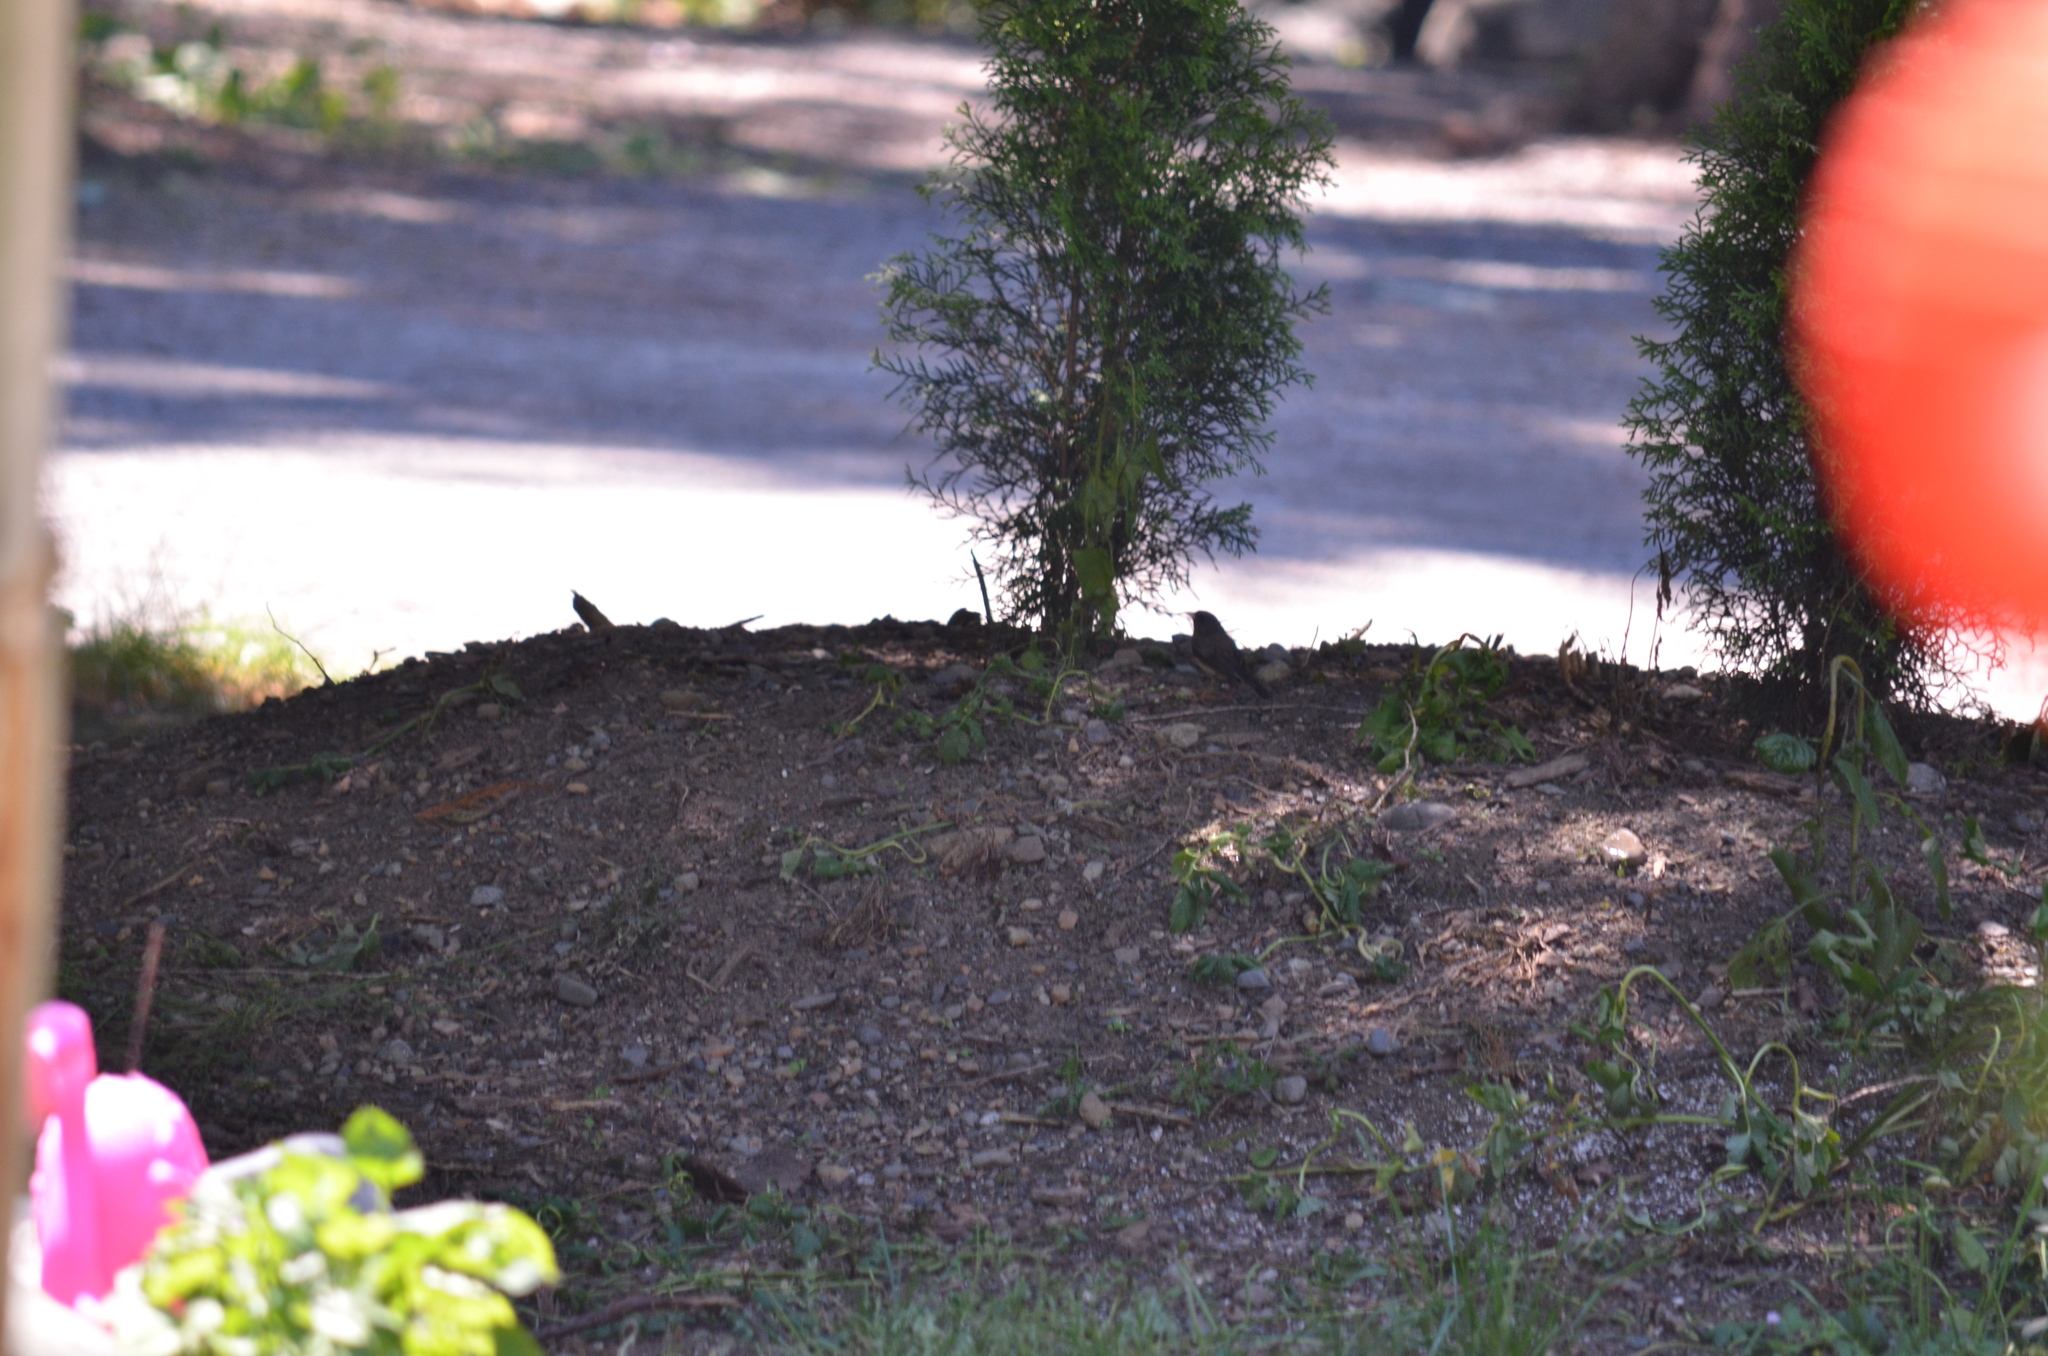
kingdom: Animalia
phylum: Chordata
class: Aves
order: Passeriformes
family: Passerellidae
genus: Junco
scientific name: Junco hyemalis
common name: Dark-eyed junco
